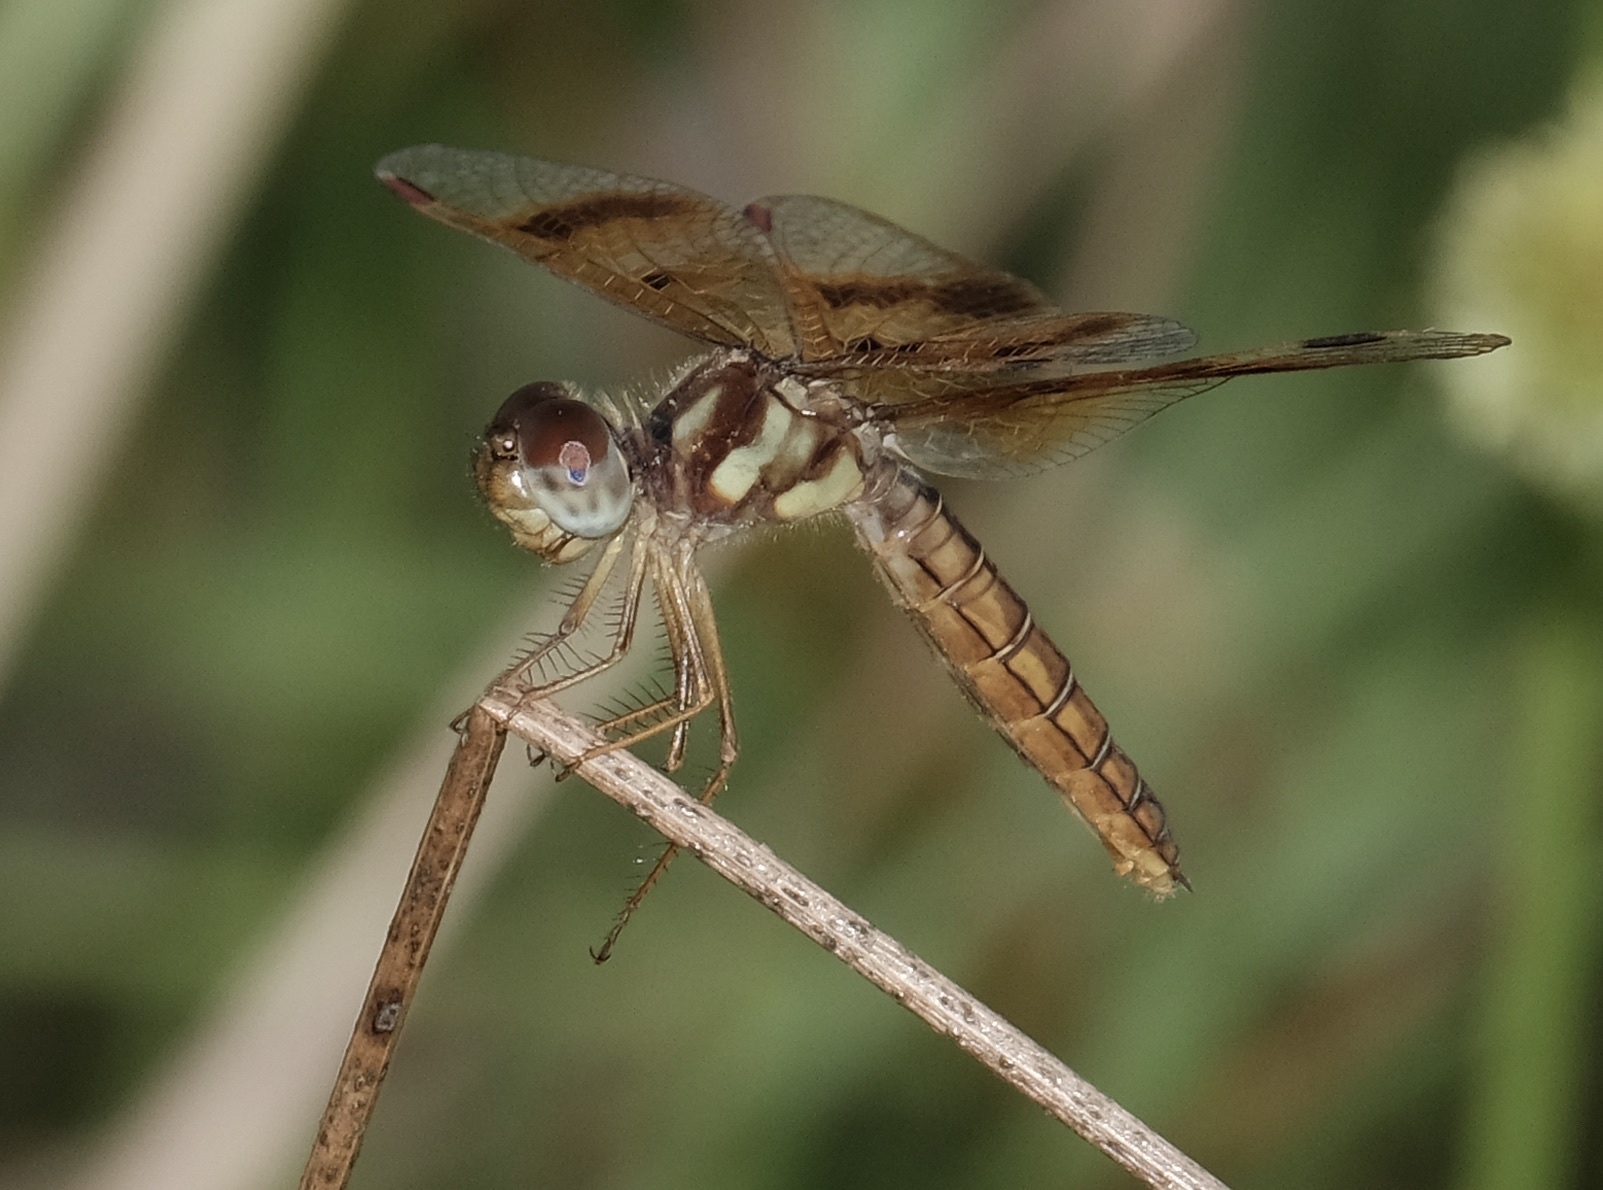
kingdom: Animalia
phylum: Arthropoda
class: Insecta
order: Odonata
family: Libellulidae
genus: Perithemis
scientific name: Perithemis tenera
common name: Eastern amberwing
